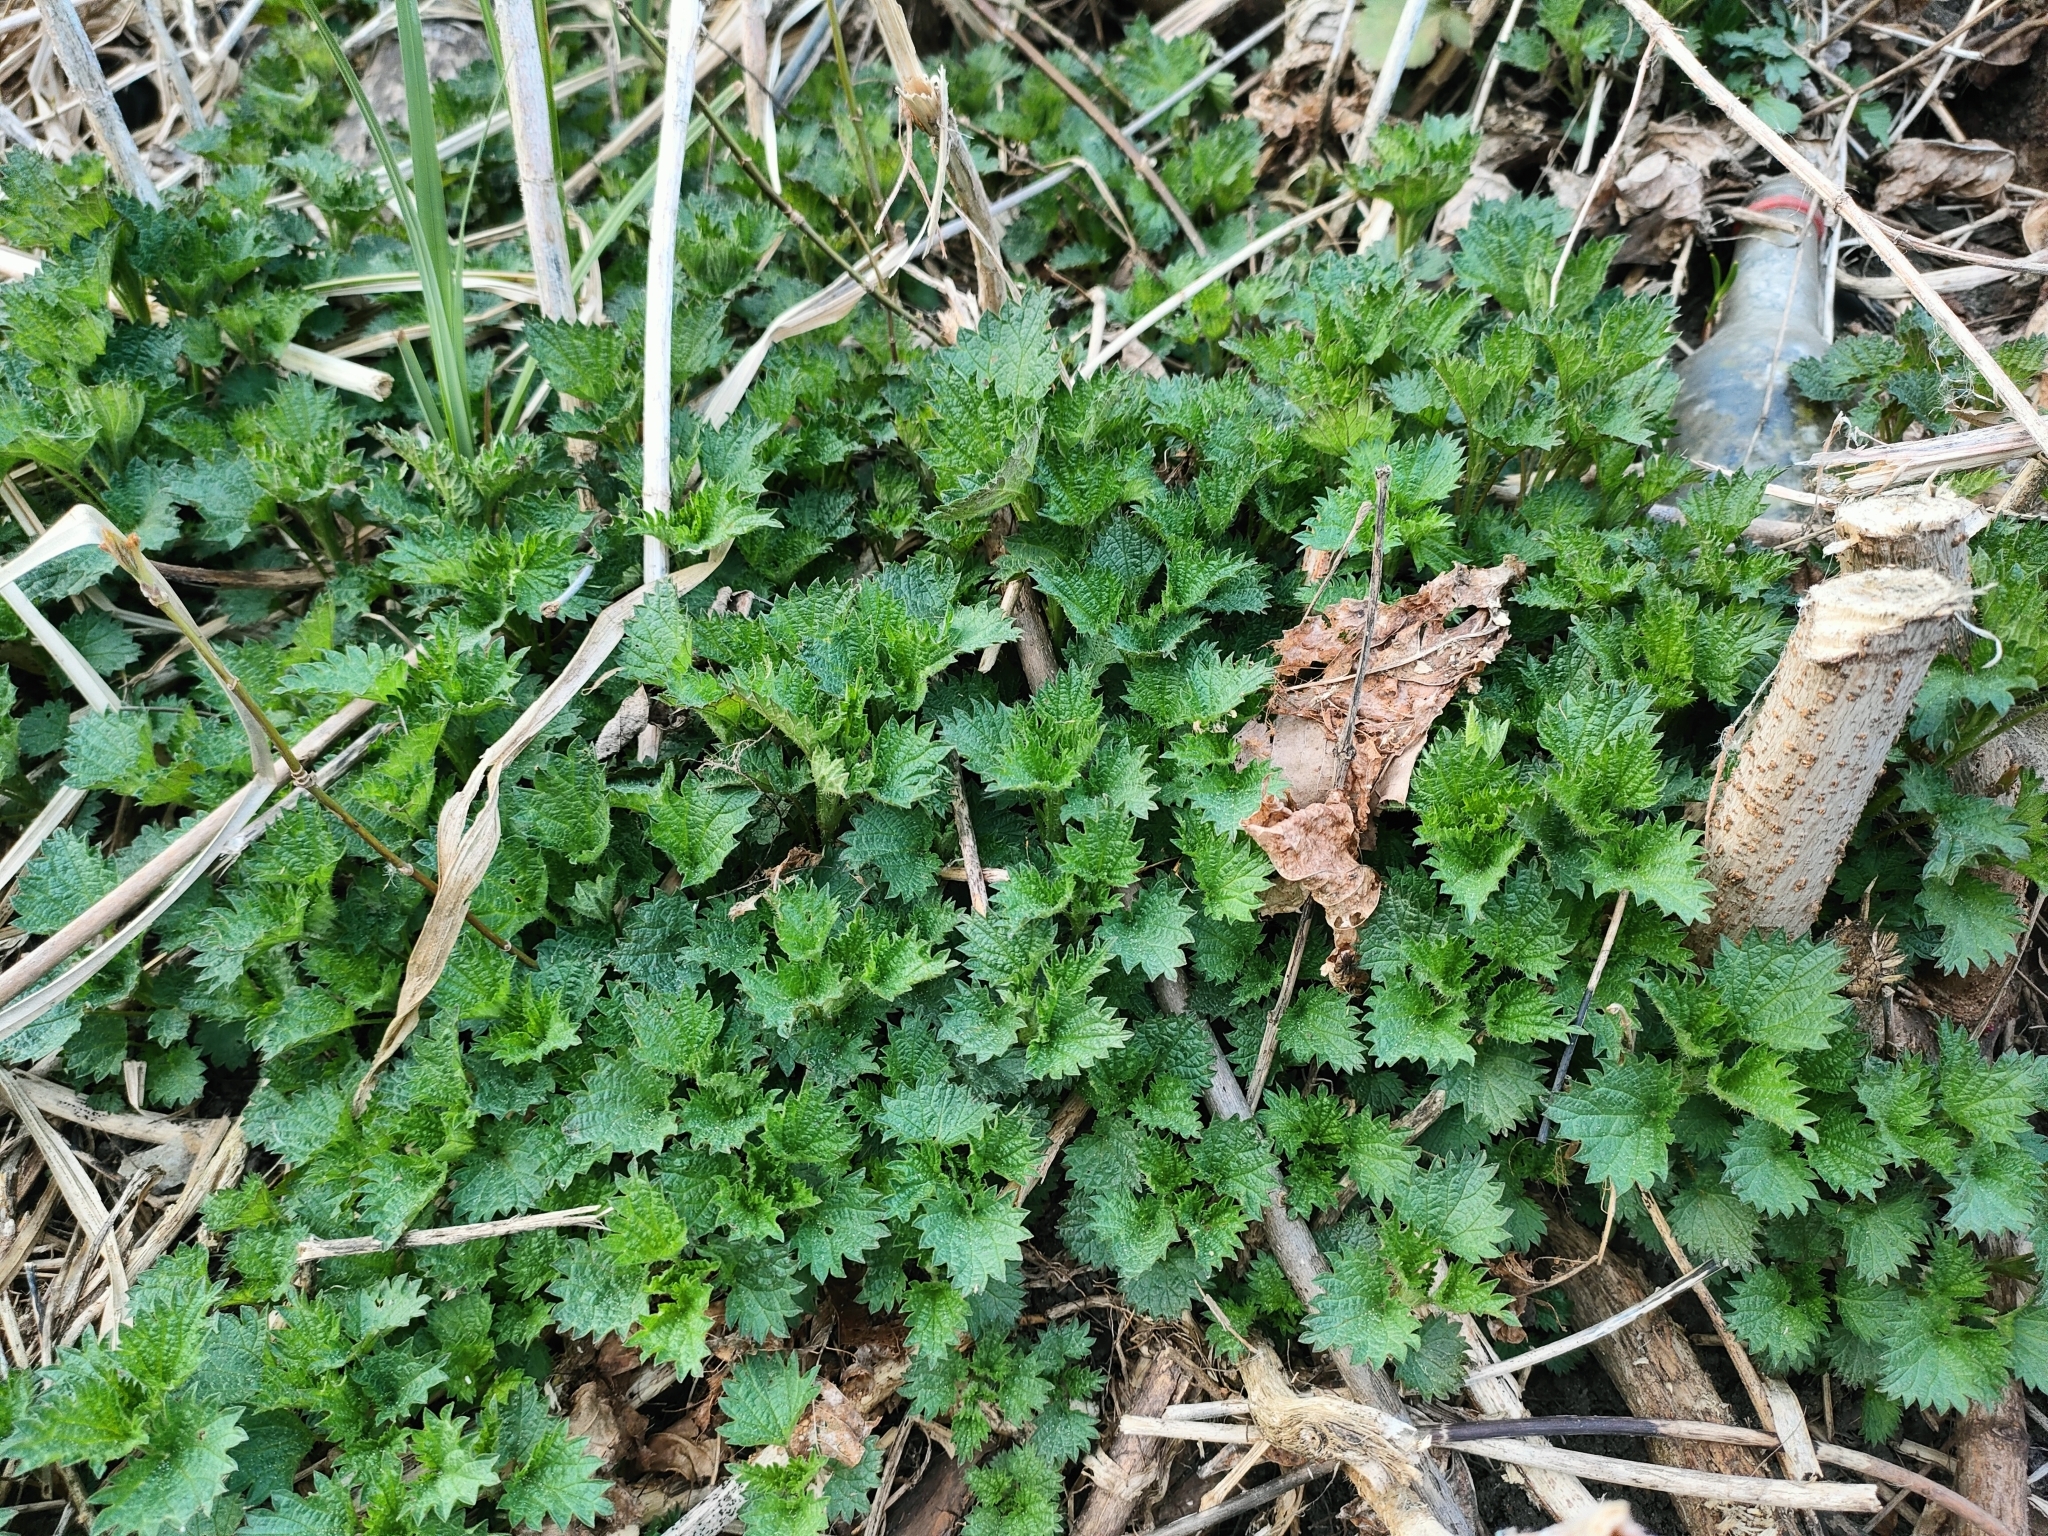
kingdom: Plantae
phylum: Tracheophyta
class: Magnoliopsida
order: Rosales
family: Urticaceae
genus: Urtica
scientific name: Urtica dioica
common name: Common nettle
